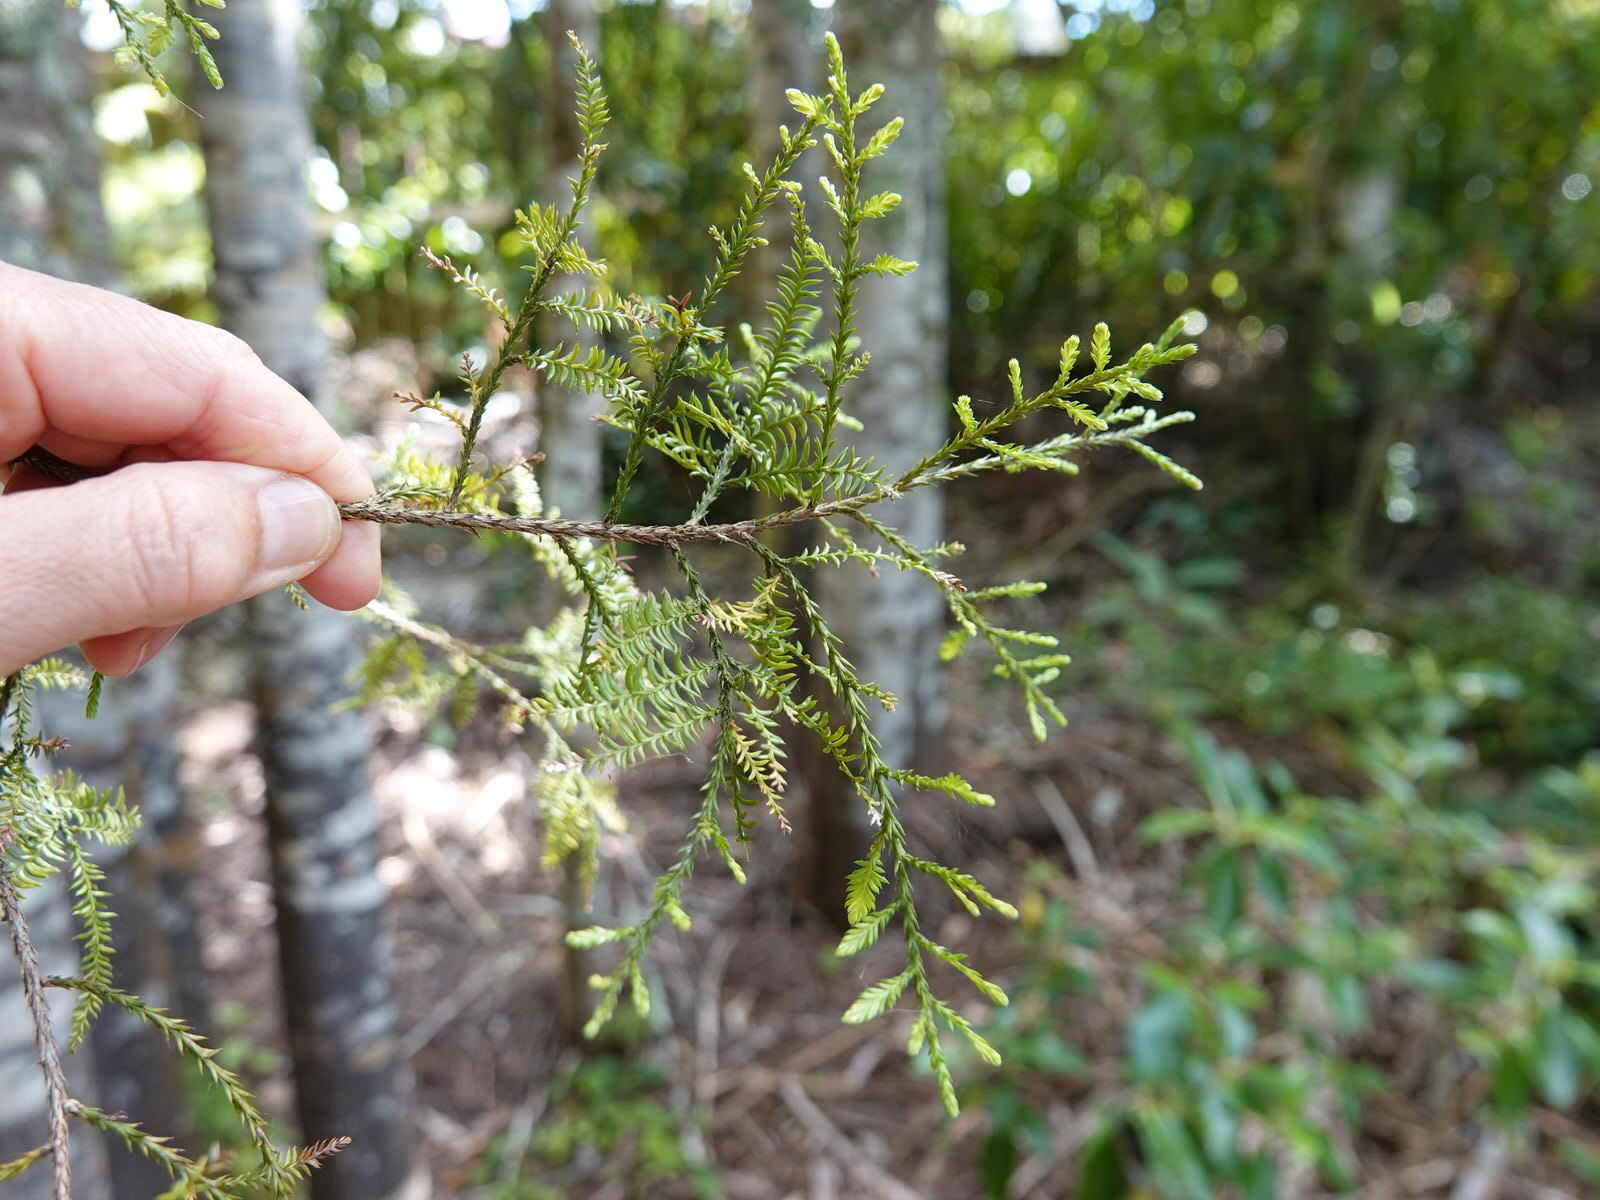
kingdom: Plantae
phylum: Tracheophyta
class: Pinopsida
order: Pinales
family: Podocarpaceae
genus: Dacrycarpus
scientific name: Dacrycarpus dacrydioides
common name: White pine
